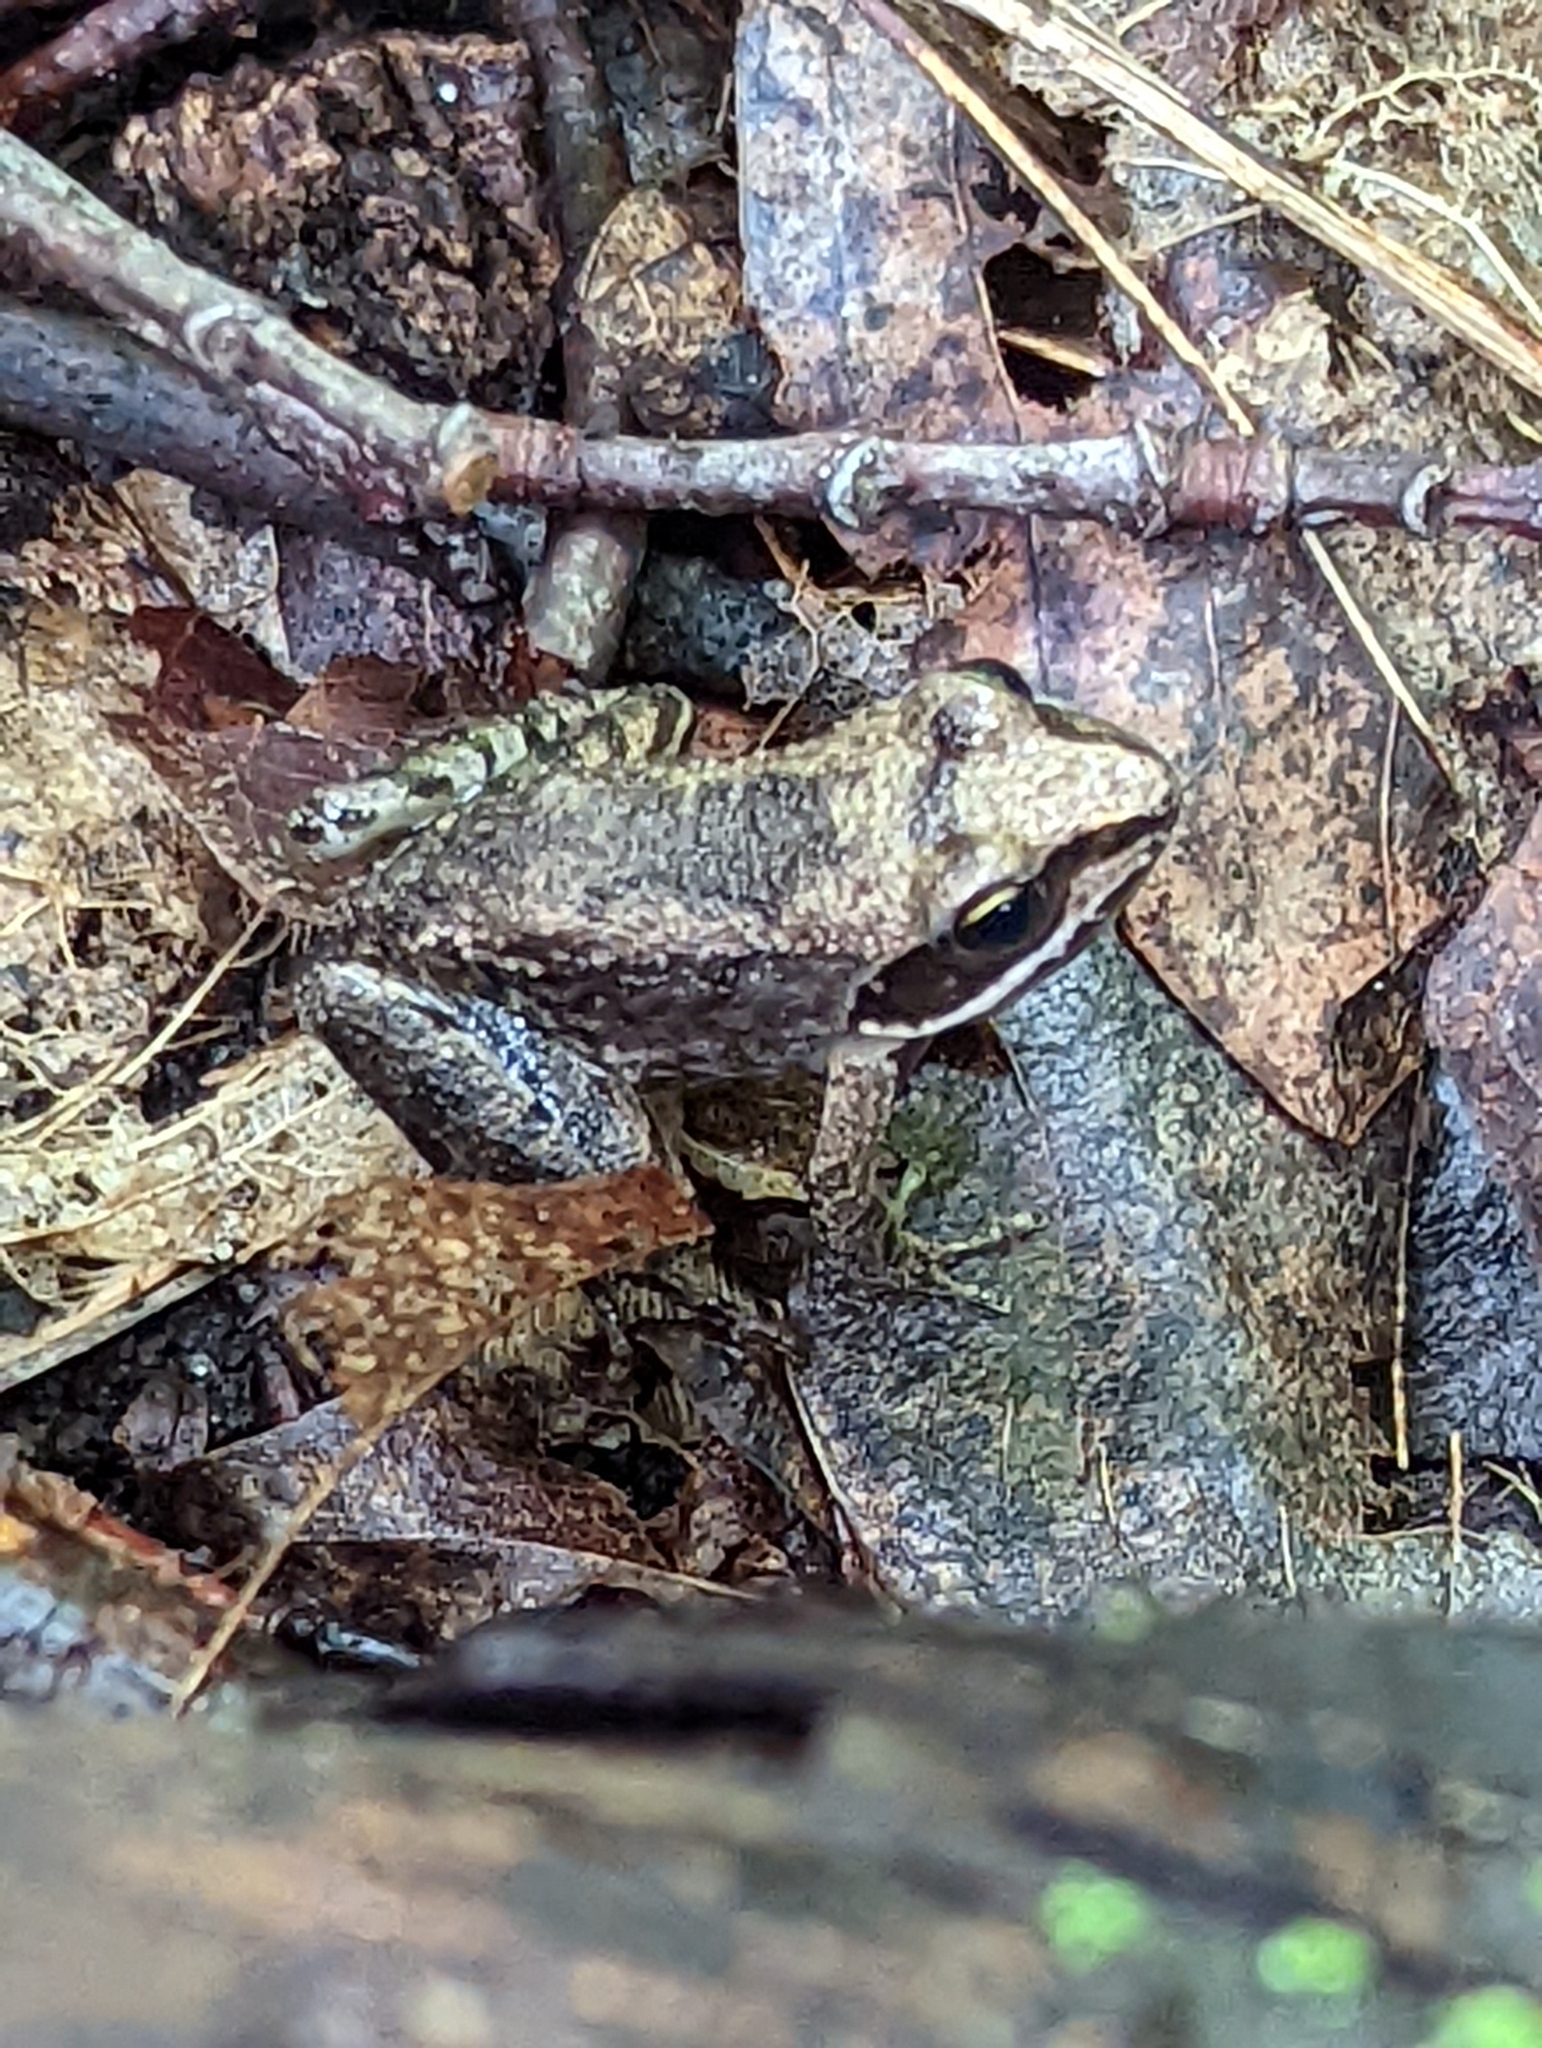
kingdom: Animalia
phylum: Chordata
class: Amphibia
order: Anura
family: Ranidae
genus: Lithobates
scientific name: Lithobates sylvaticus
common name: Wood frog
